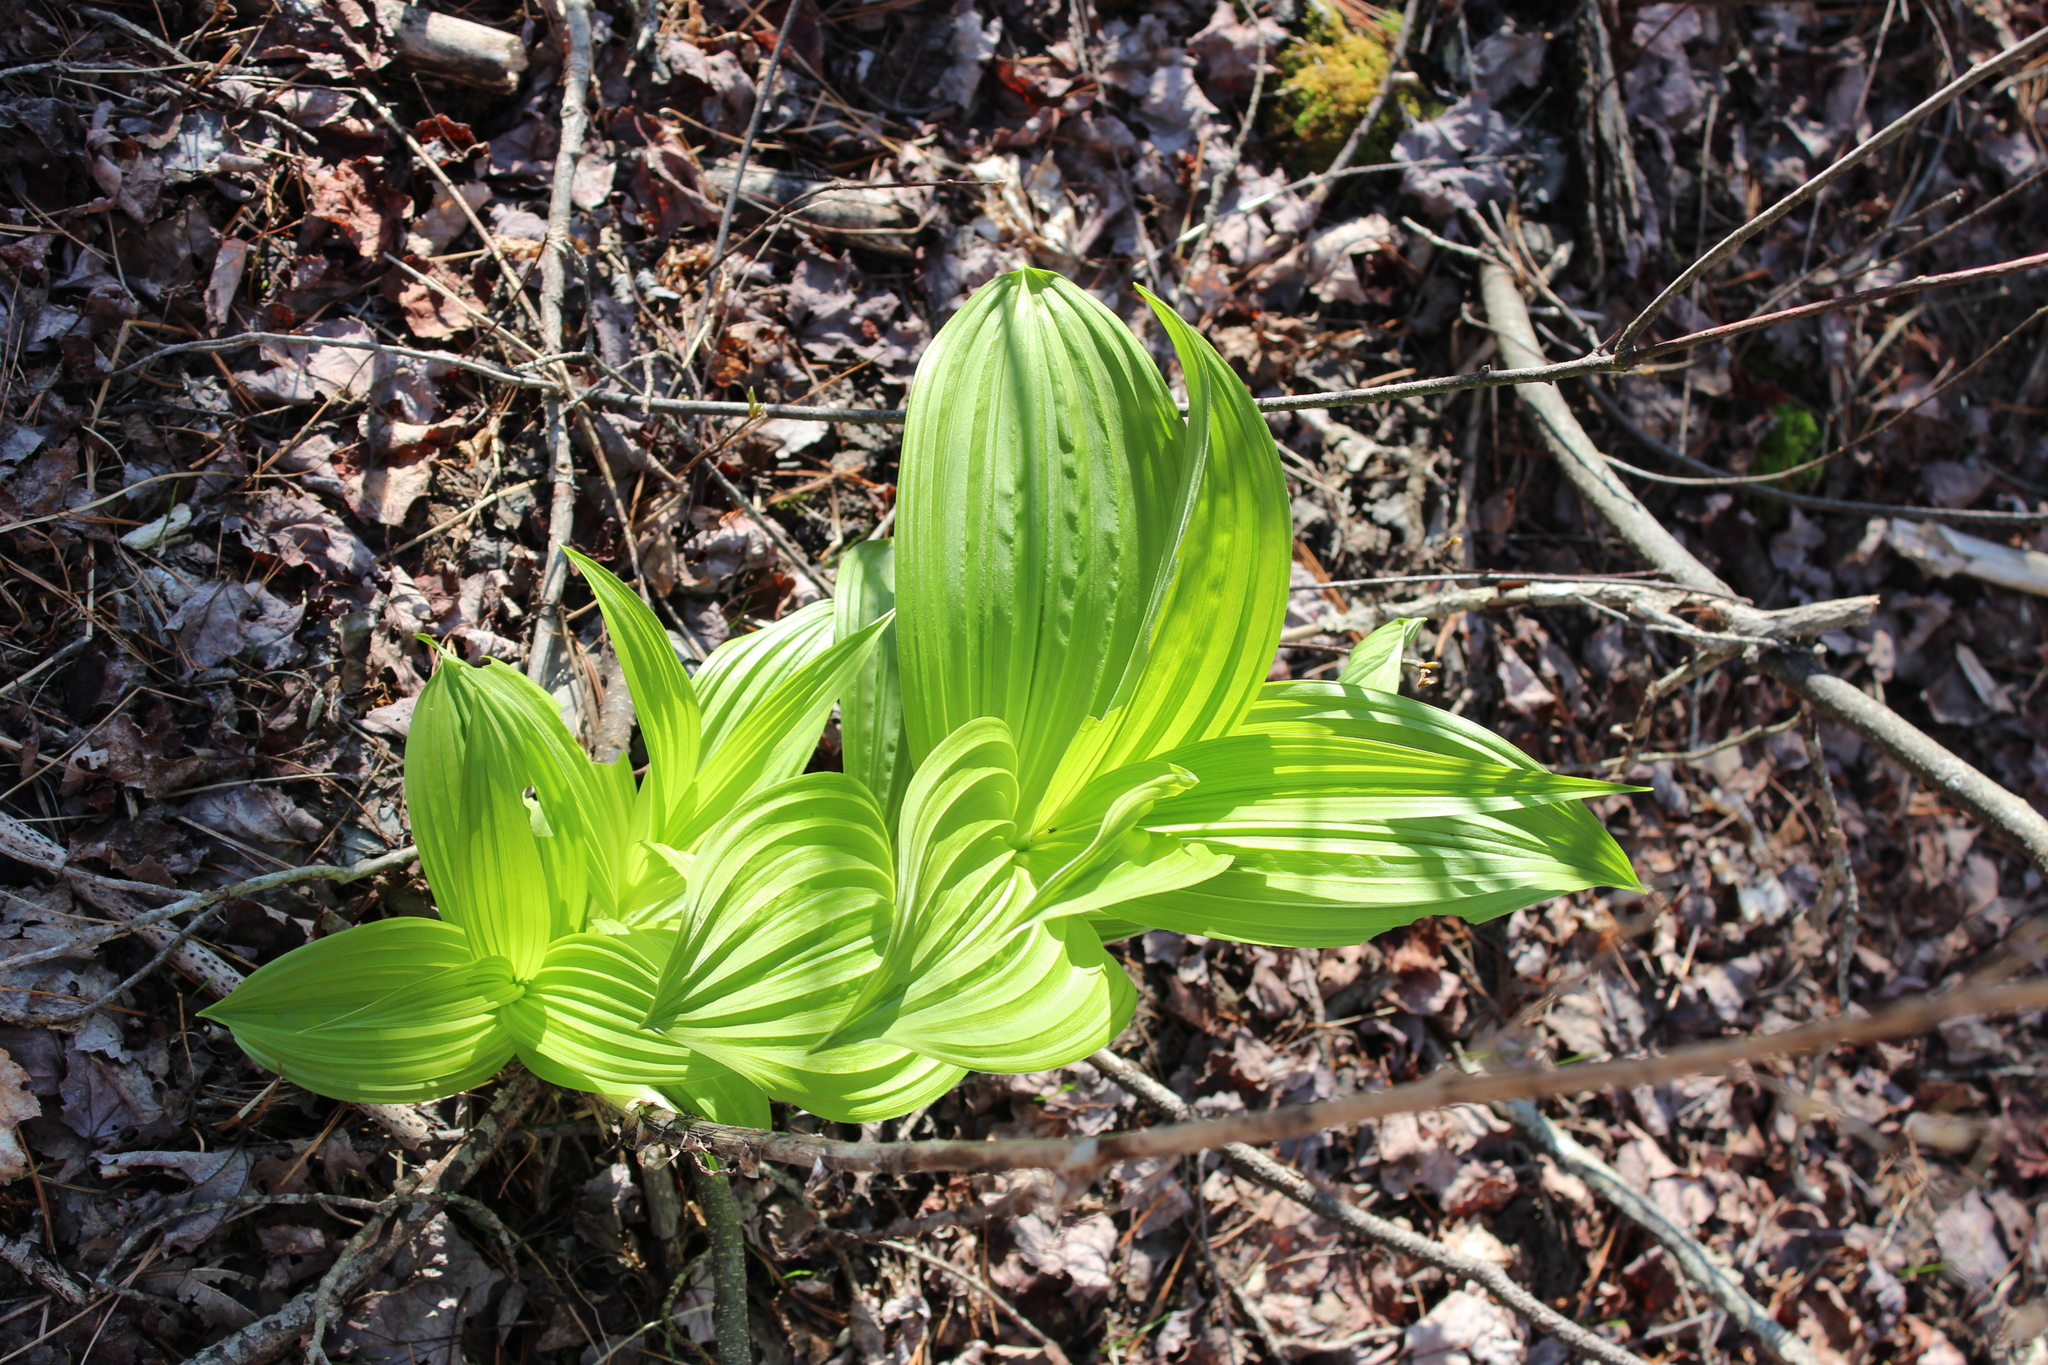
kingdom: Plantae
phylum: Tracheophyta
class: Liliopsida
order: Liliales
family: Melanthiaceae
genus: Veratrum
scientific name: Veratrum viride
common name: American false hellebore
